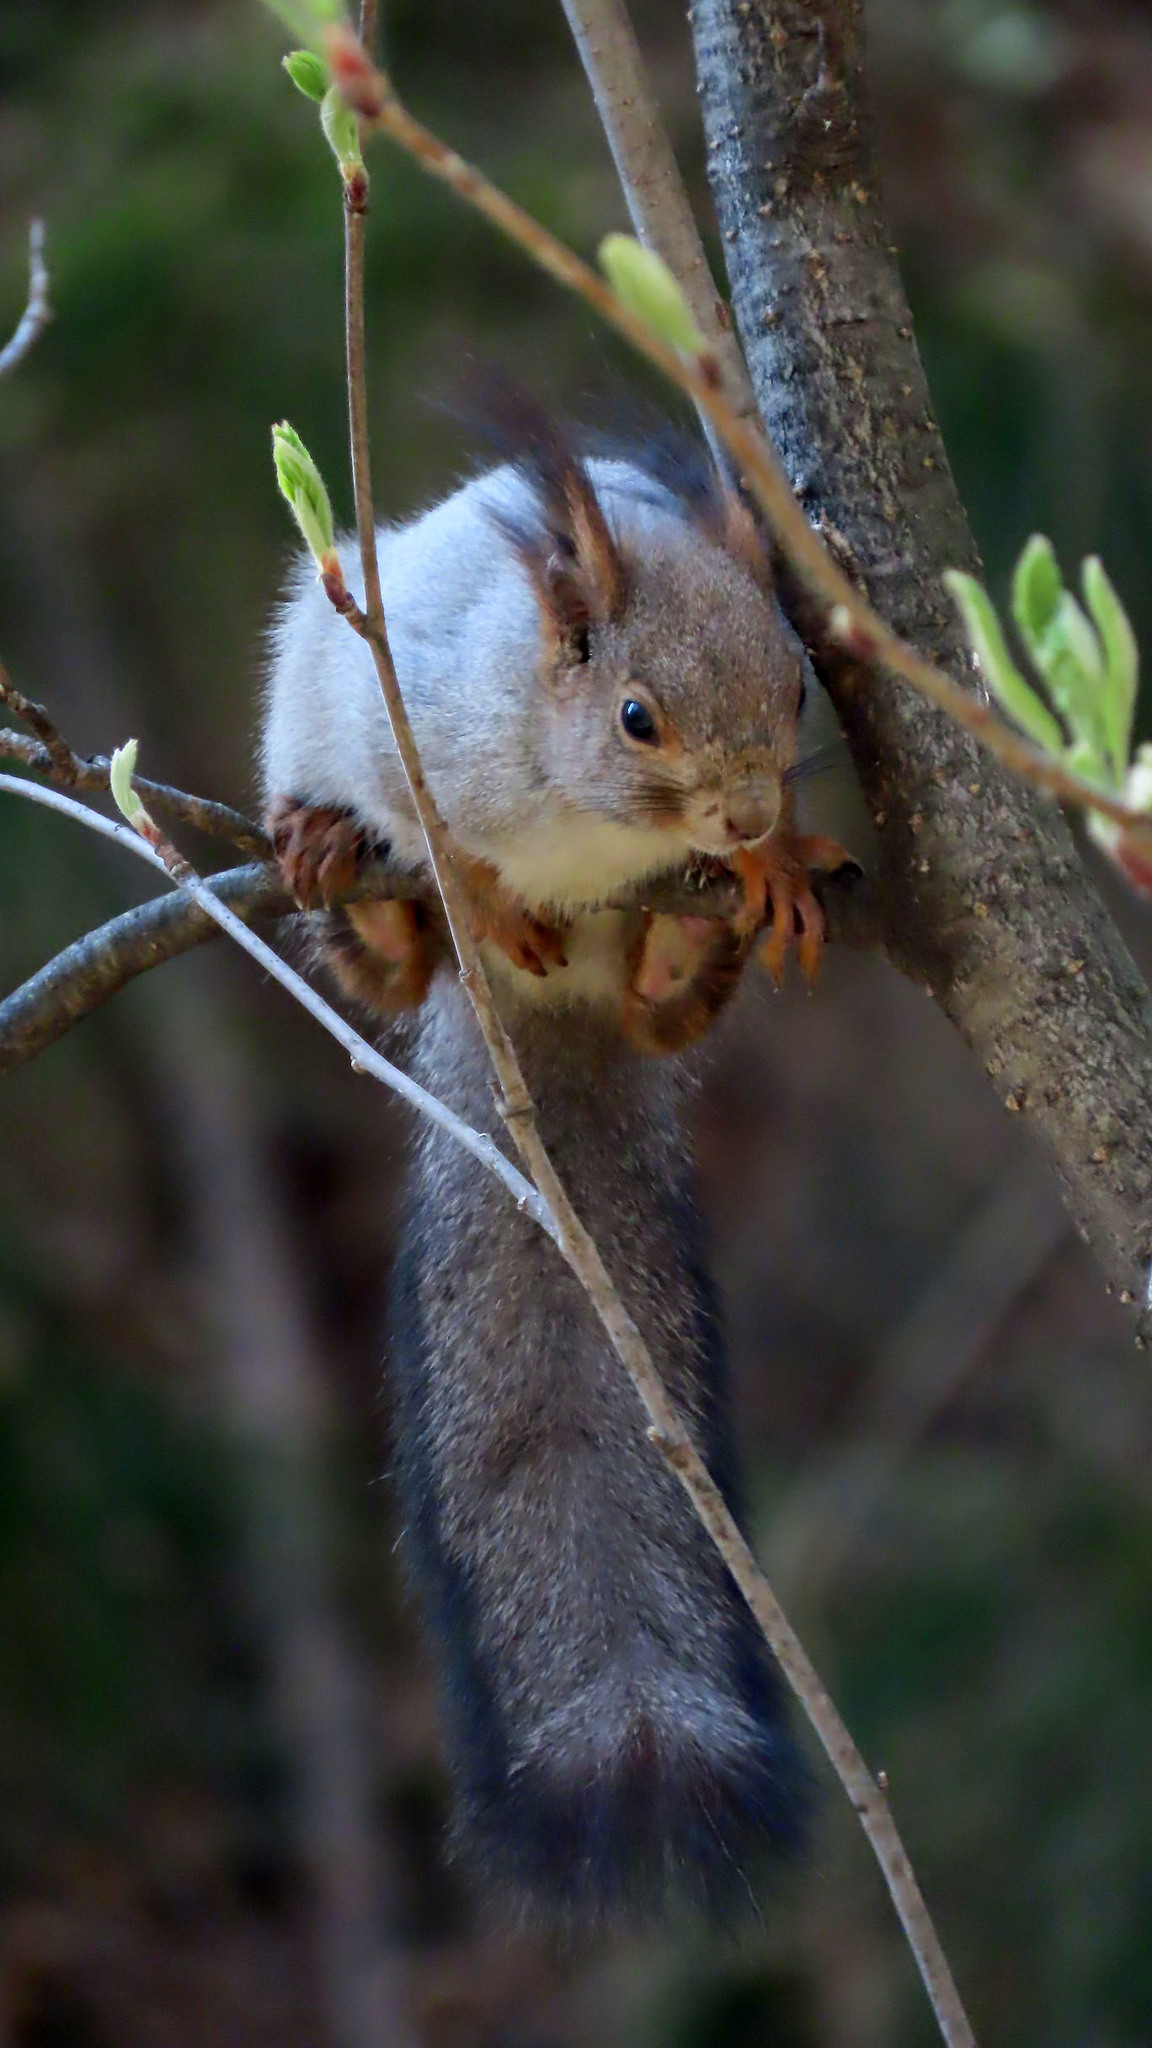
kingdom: Animalia
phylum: Chordata
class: Mammalia
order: Rodentia
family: Sciuridae
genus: Sciurus
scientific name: Sciurus vulgaris
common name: Eurasian red squirrel
